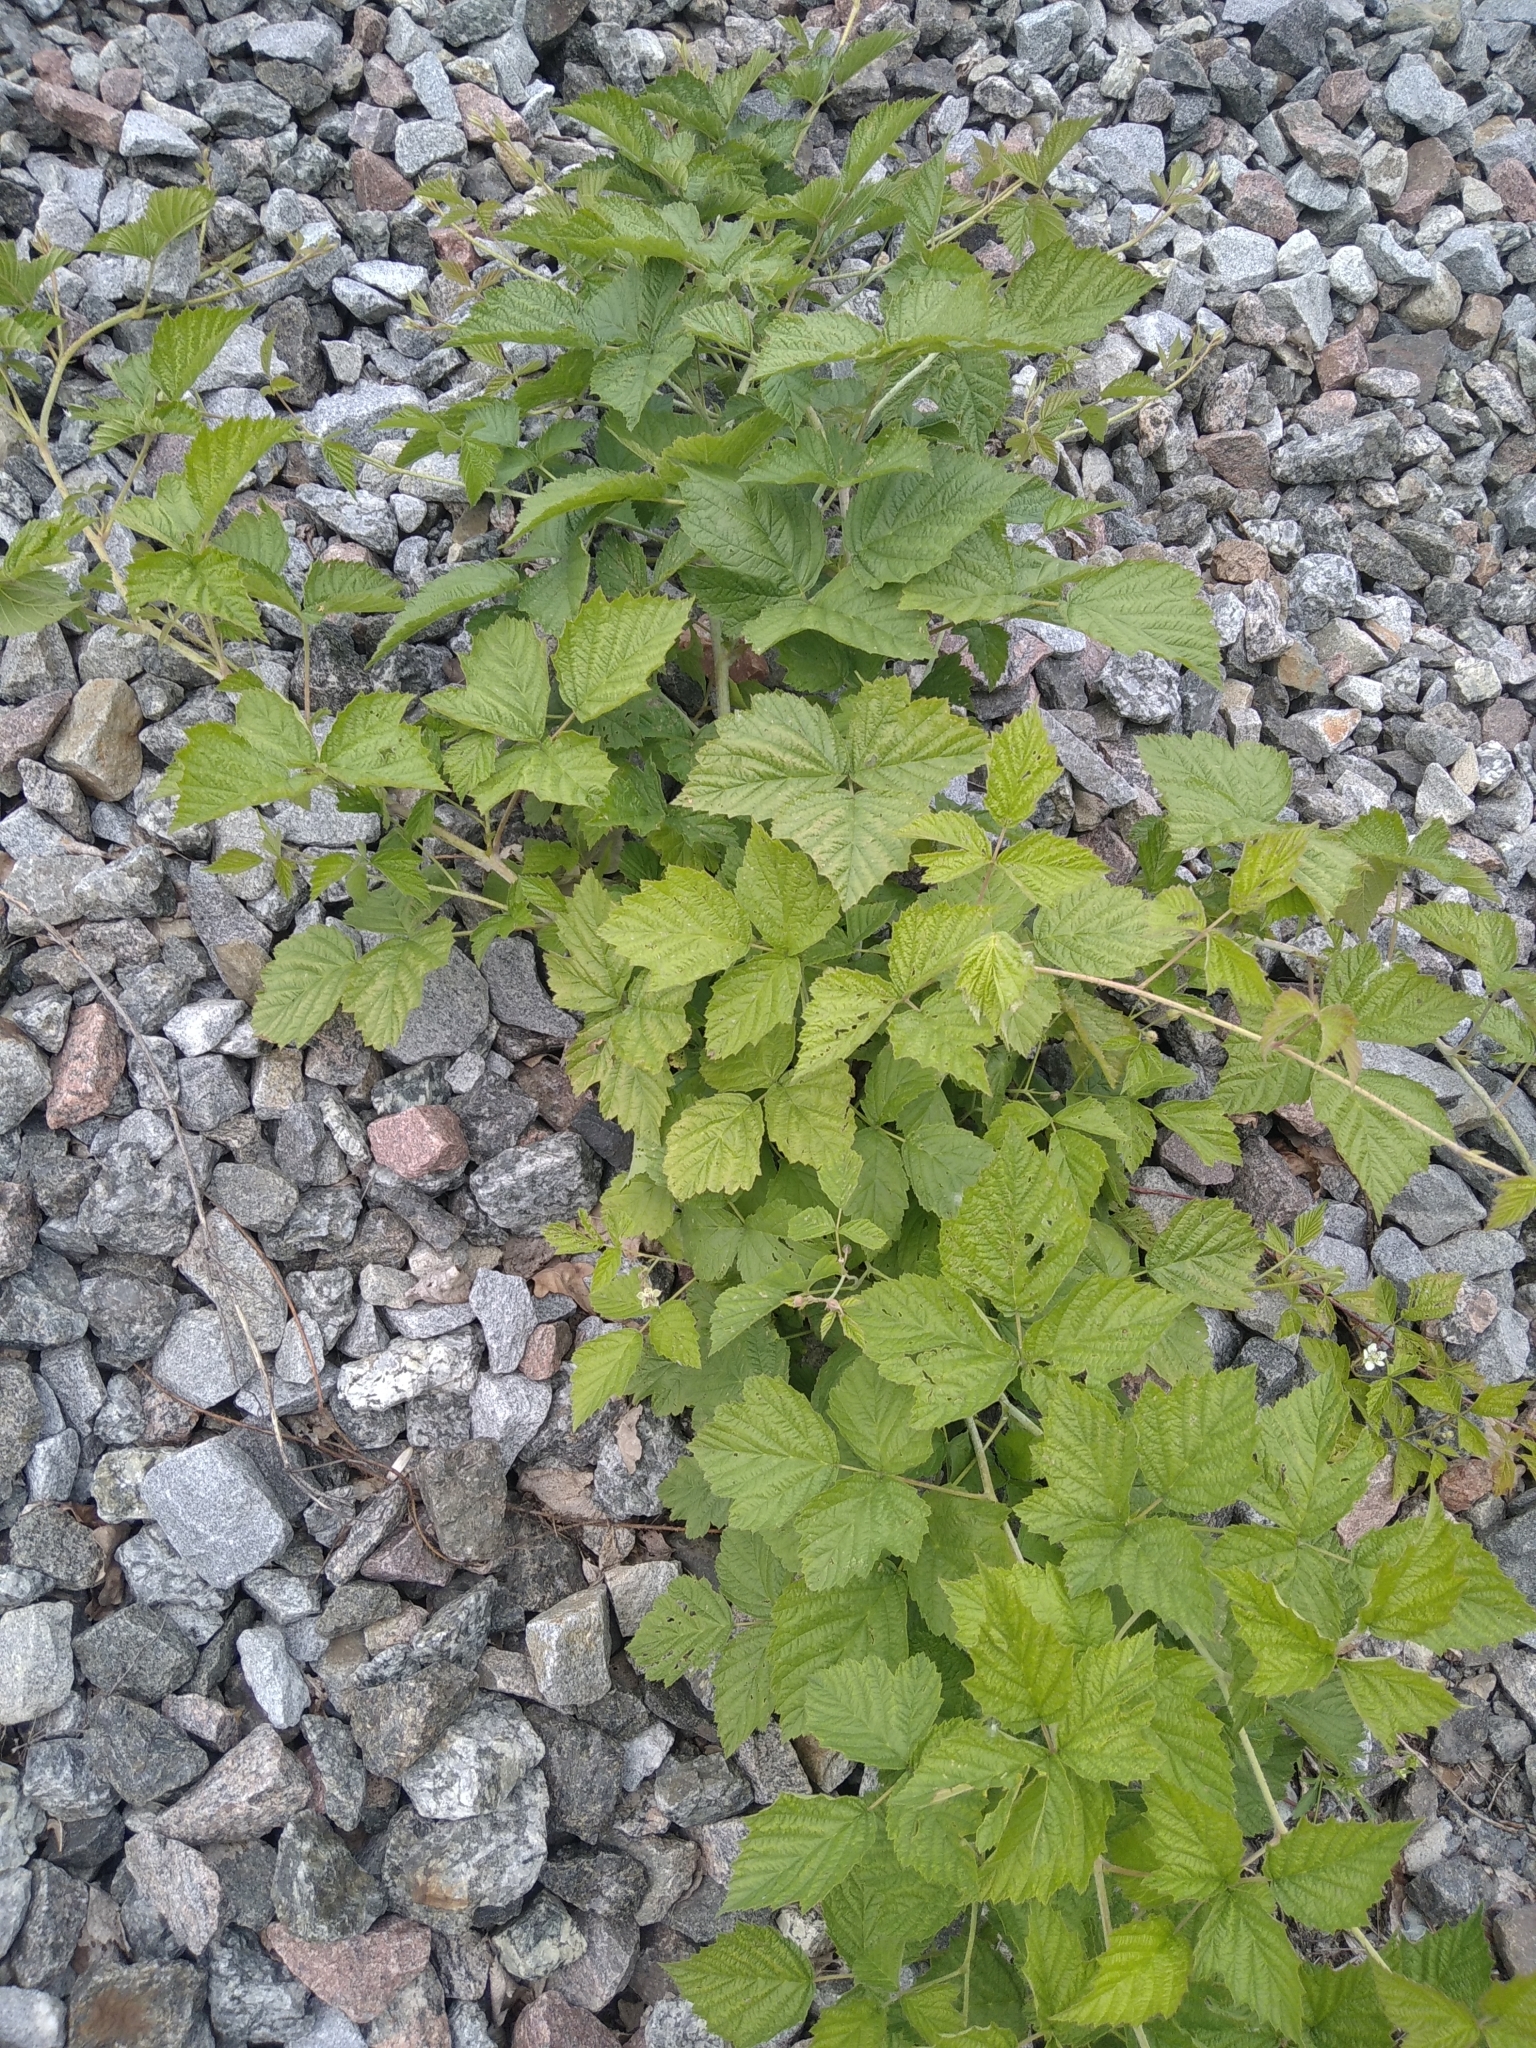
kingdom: Plantae
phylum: Tracheophyta
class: Magnoliopsida
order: Rosales
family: Rosaceae
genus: Rubus
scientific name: Rubus caesius
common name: Dewberry
